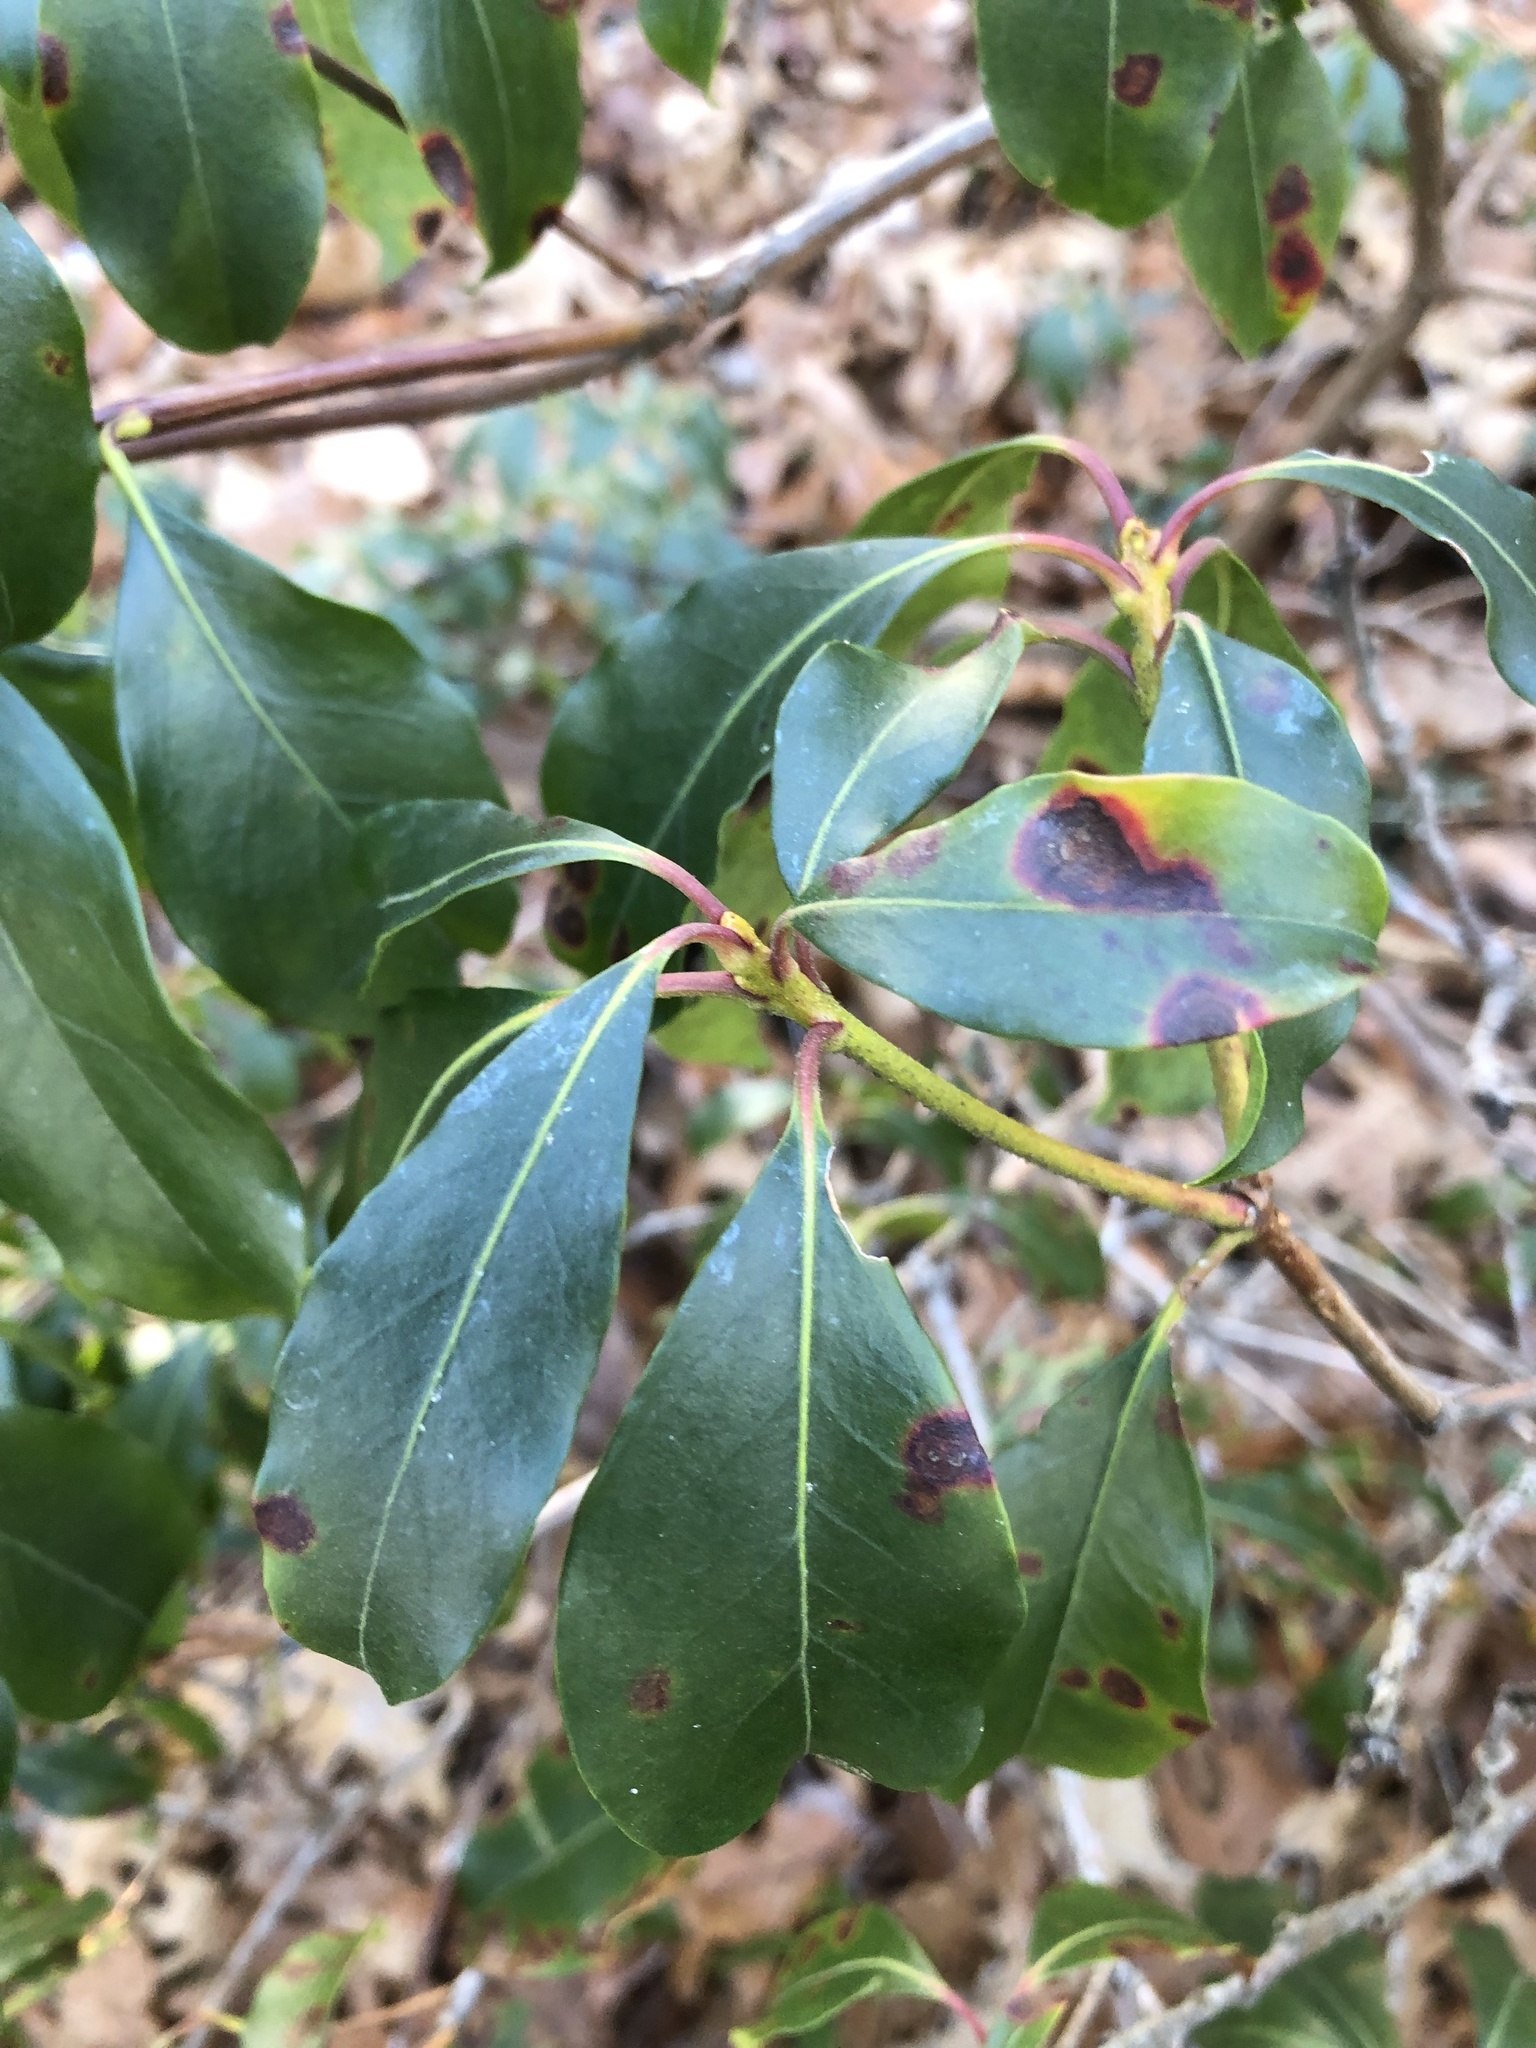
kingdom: Plantae
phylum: Tracheophyta
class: Magnoliopsida
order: Ericales
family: Ericaceae
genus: Kalmia
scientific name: Kalmia latifolia
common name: Mountain-laurel
